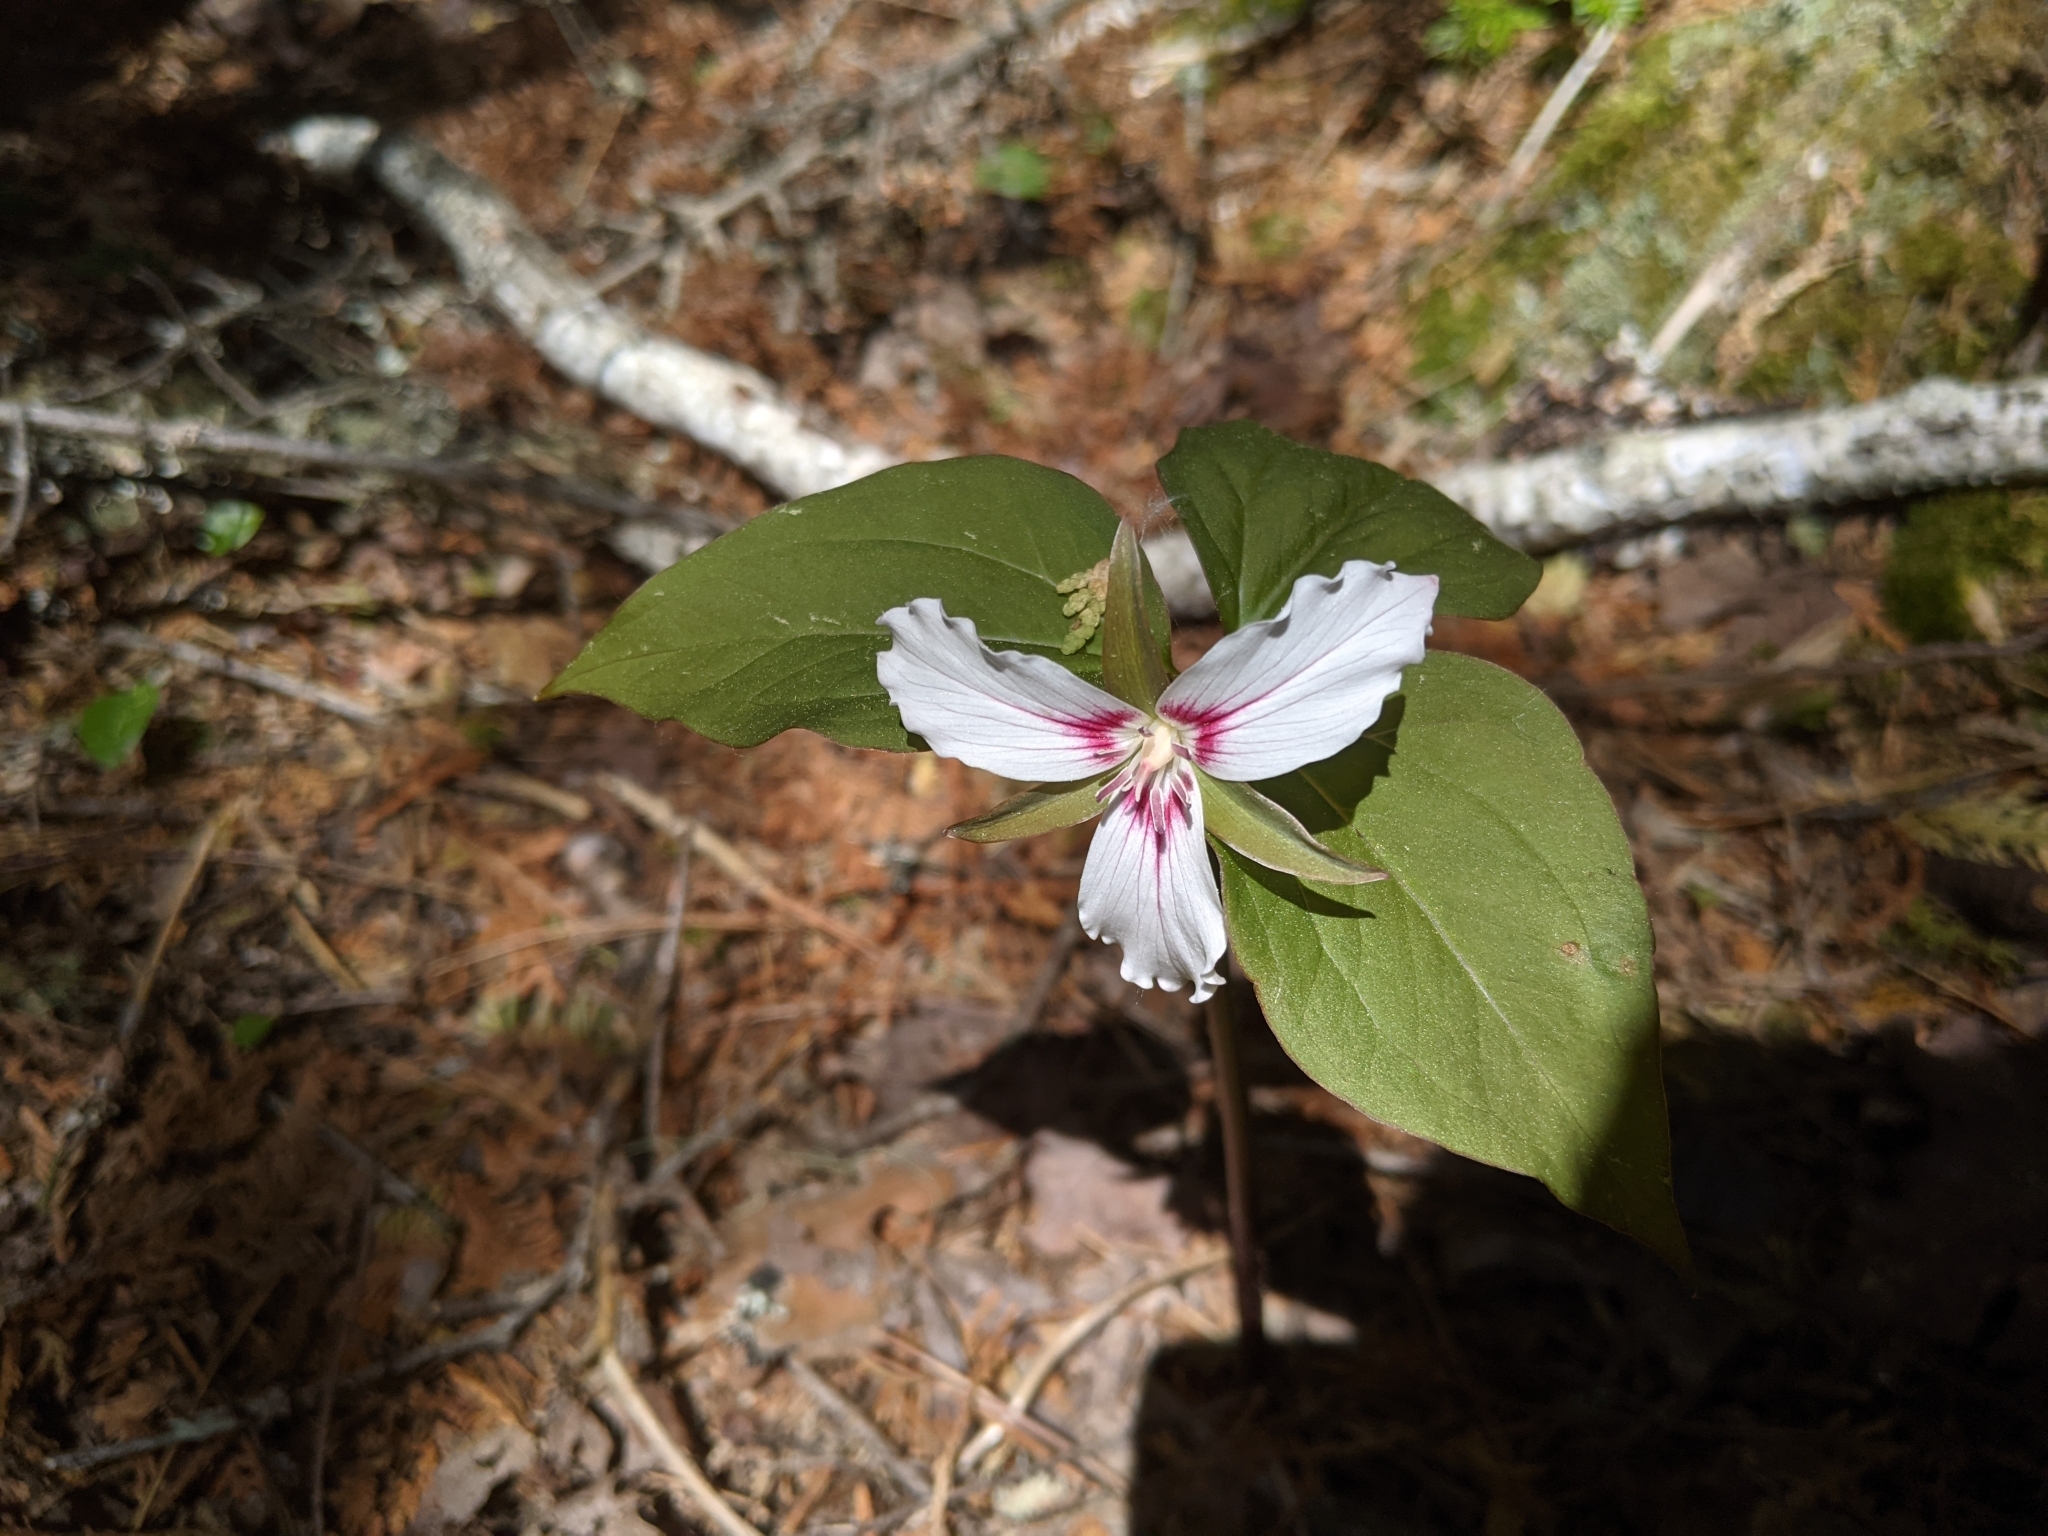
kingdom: Plantae
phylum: Tracheophyta
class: Liliopsida
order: Liliales
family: Melanthiaceae
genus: Trillium
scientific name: Trillium undulatum
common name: Paint trillium
